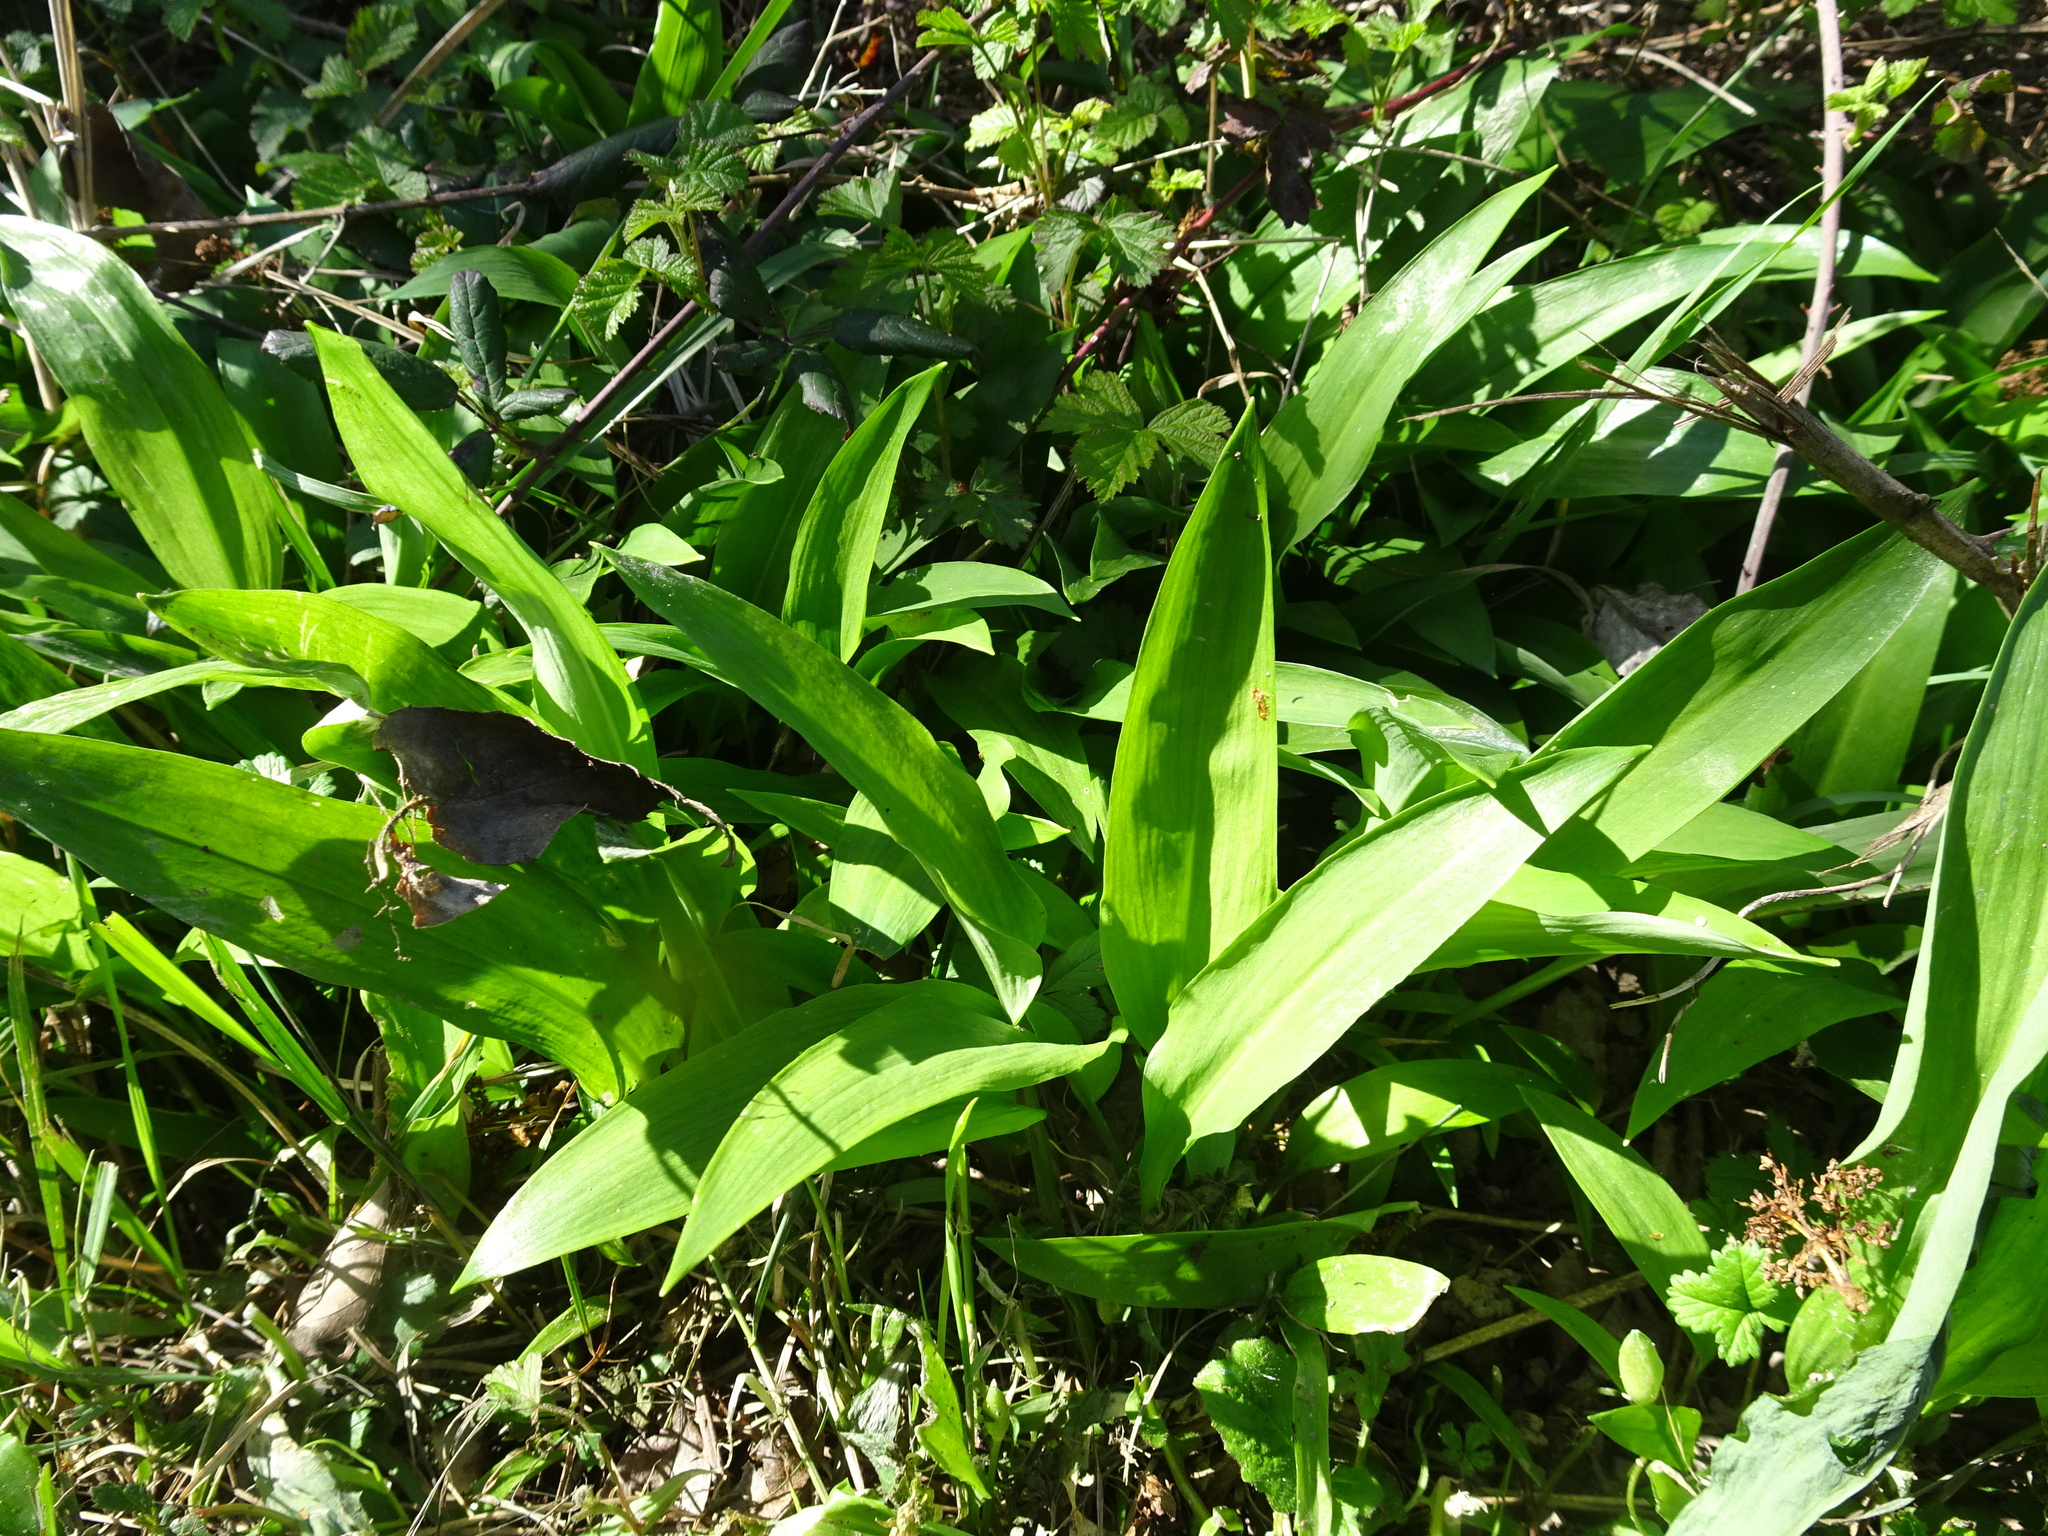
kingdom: Plantae
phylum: Tracheophyta
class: Liliopsida
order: Asparagales
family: Amaryllidaceae
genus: Allium
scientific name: Allium ursinum
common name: Ramsons
